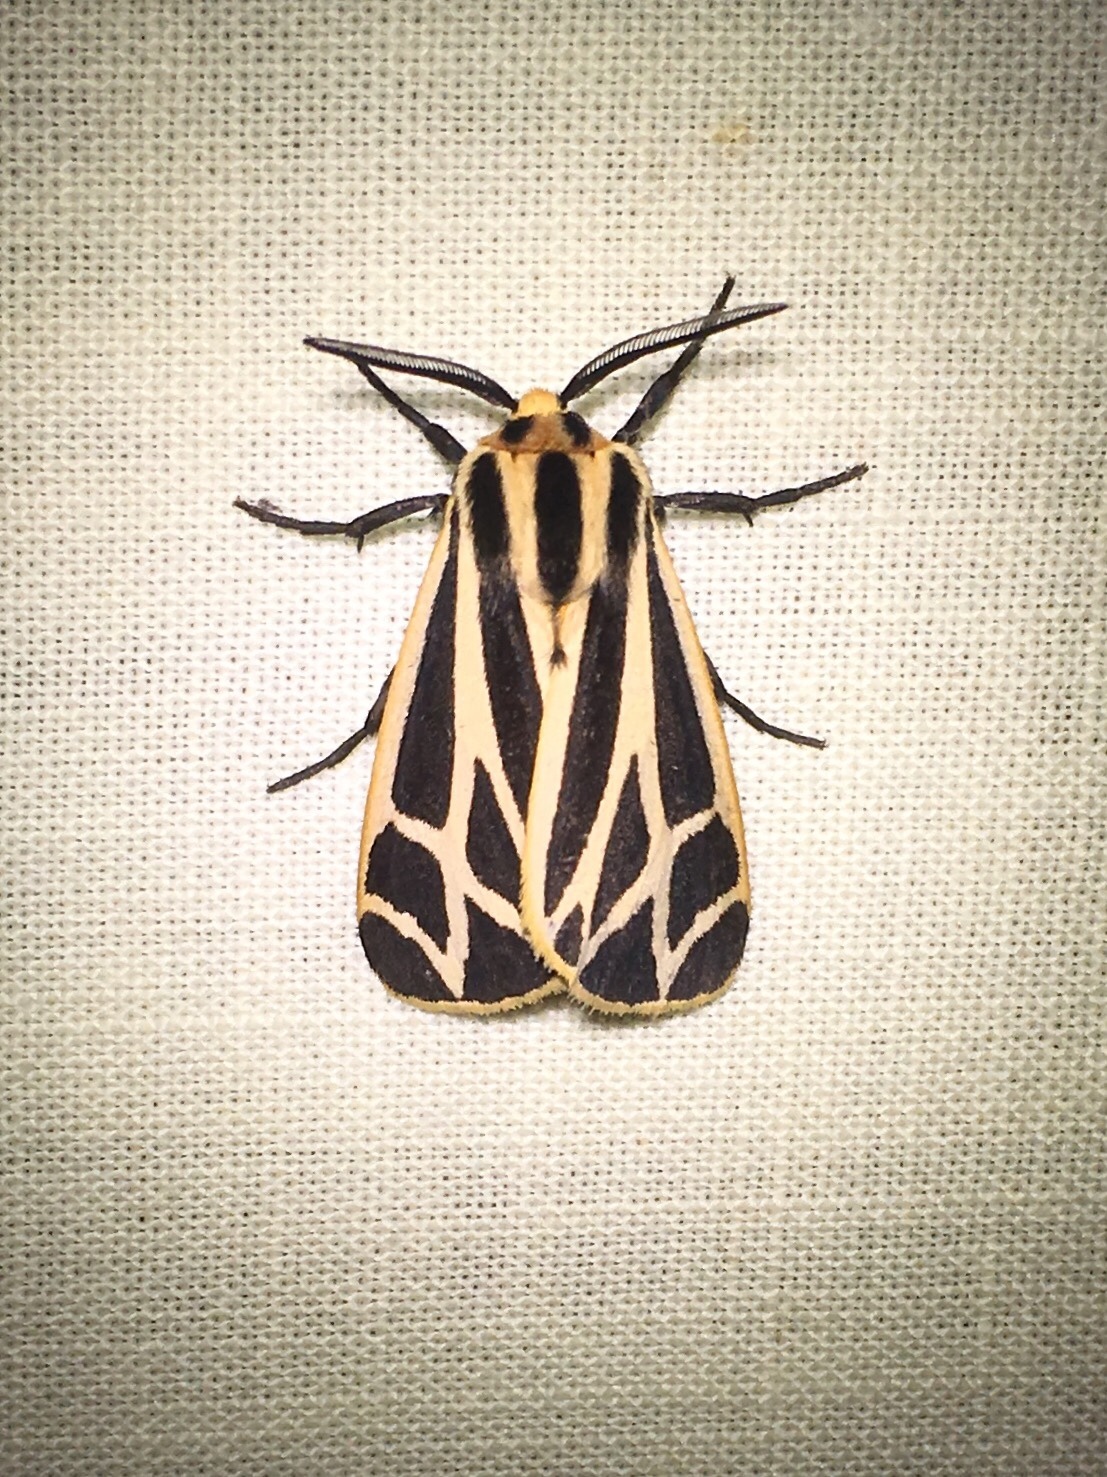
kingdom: Animalia
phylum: Arthropoda
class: Insecta
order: Lepidoptera
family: Erebidae
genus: Apantesis
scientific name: Apantesis phalerata
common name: Harnessed tiger moth
